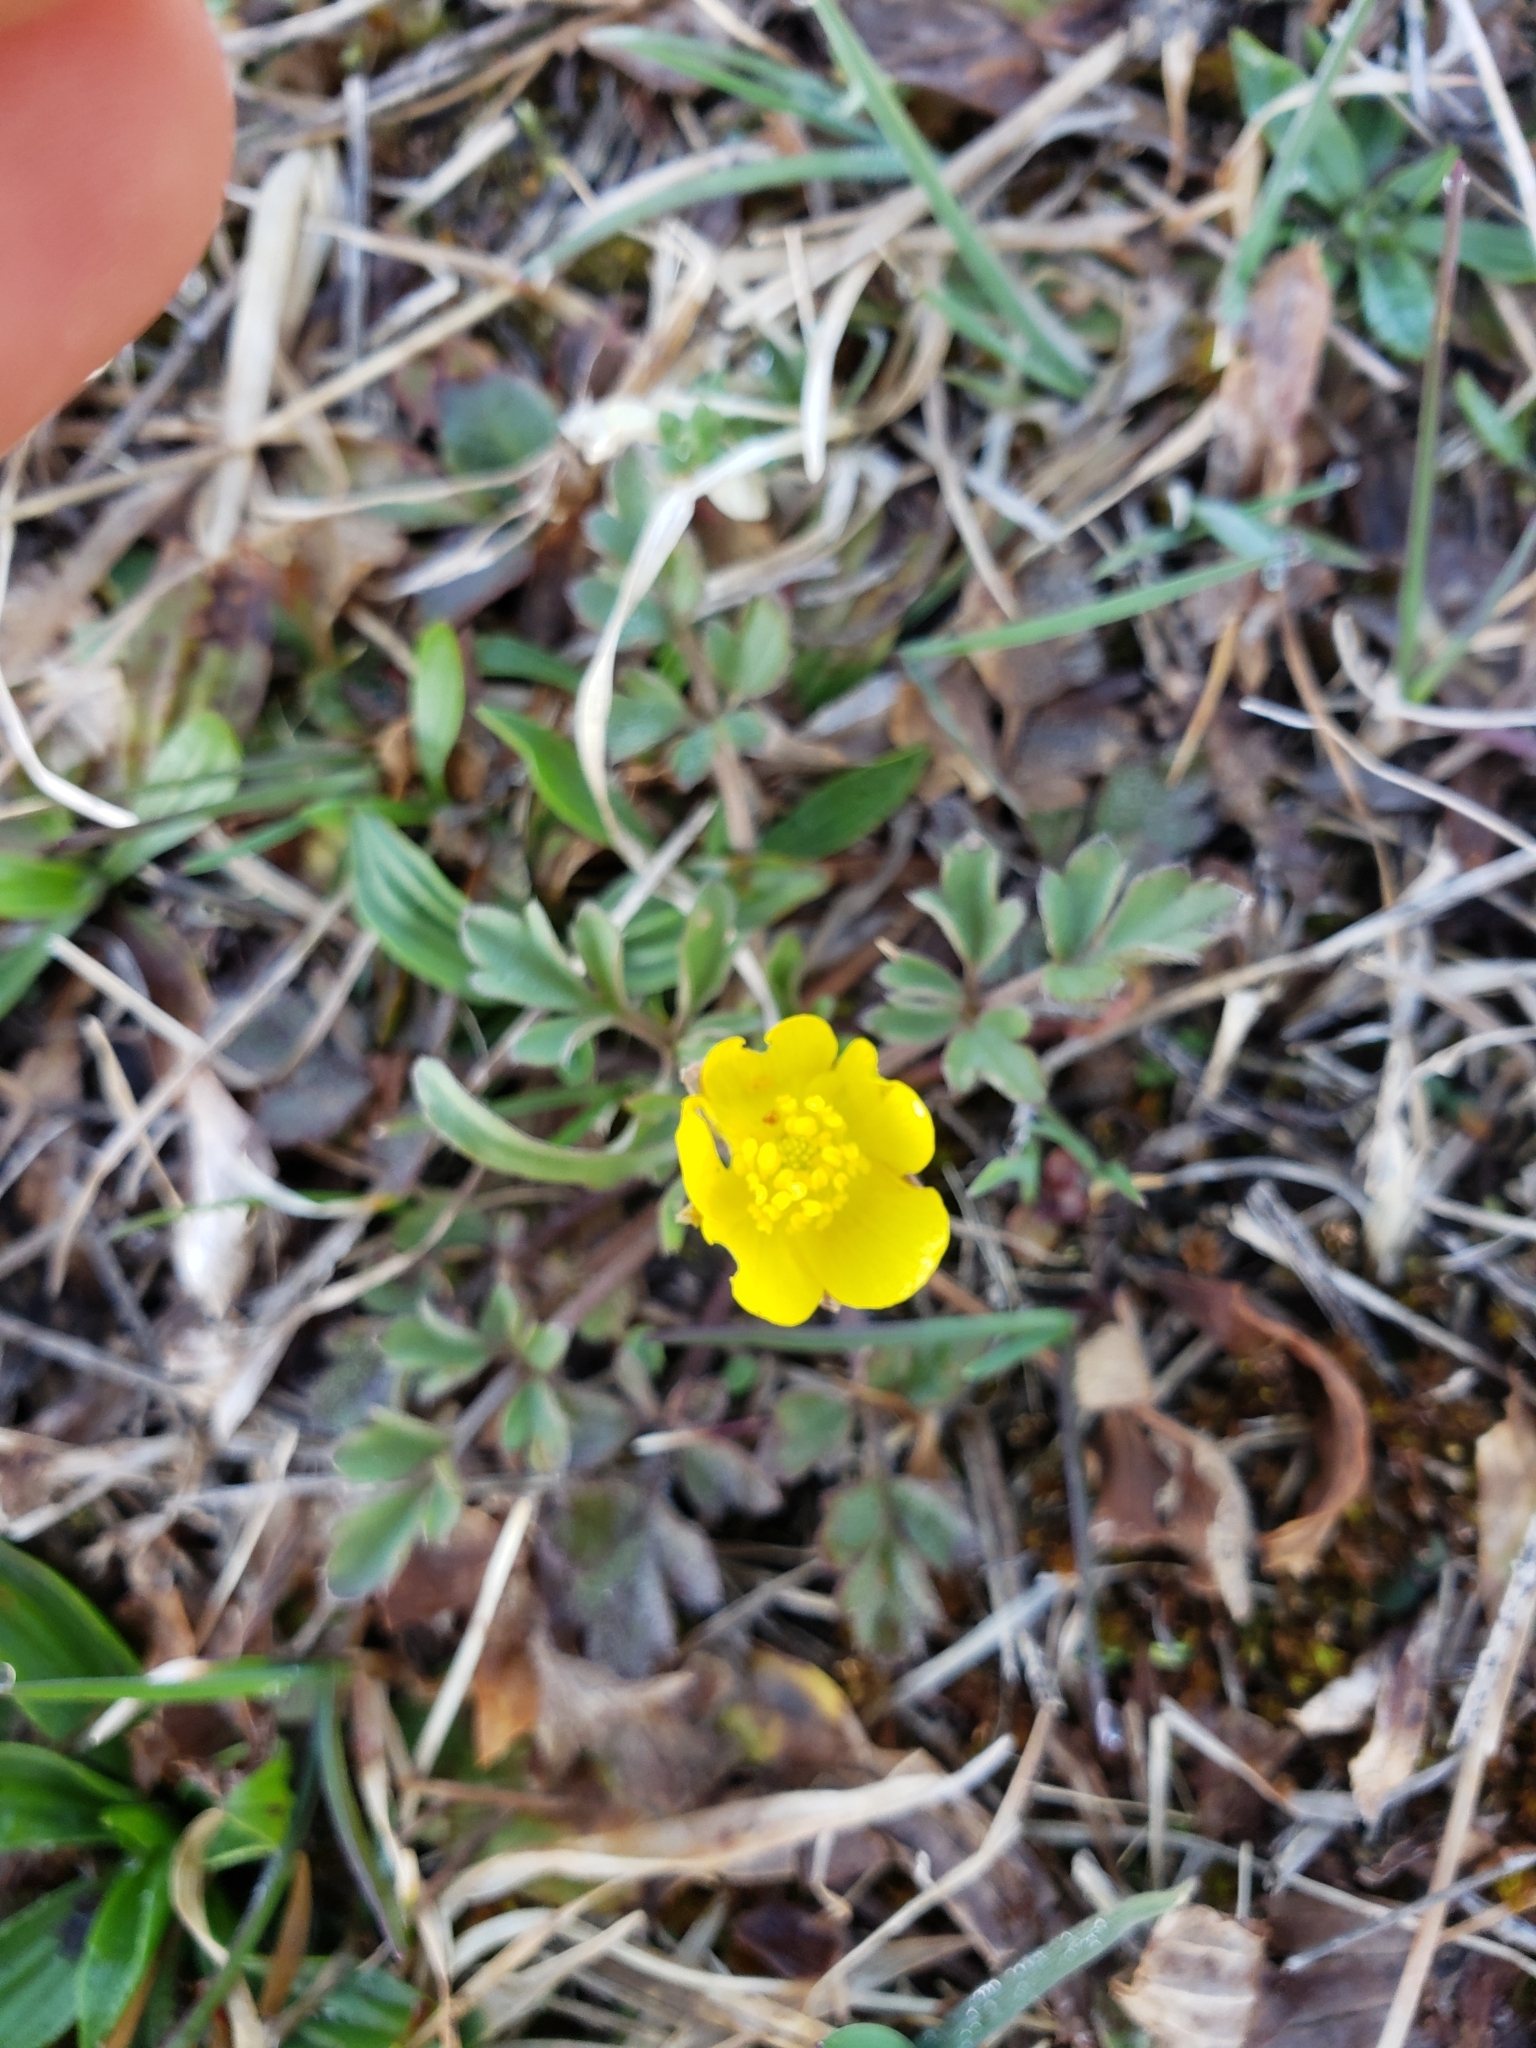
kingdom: Plantae
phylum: Tracheophyta
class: Magnoliopsida
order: Ranunculales
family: Ranunculaceae
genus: Ranunculus
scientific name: Ranunculus fascicularis
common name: Early buttercup
